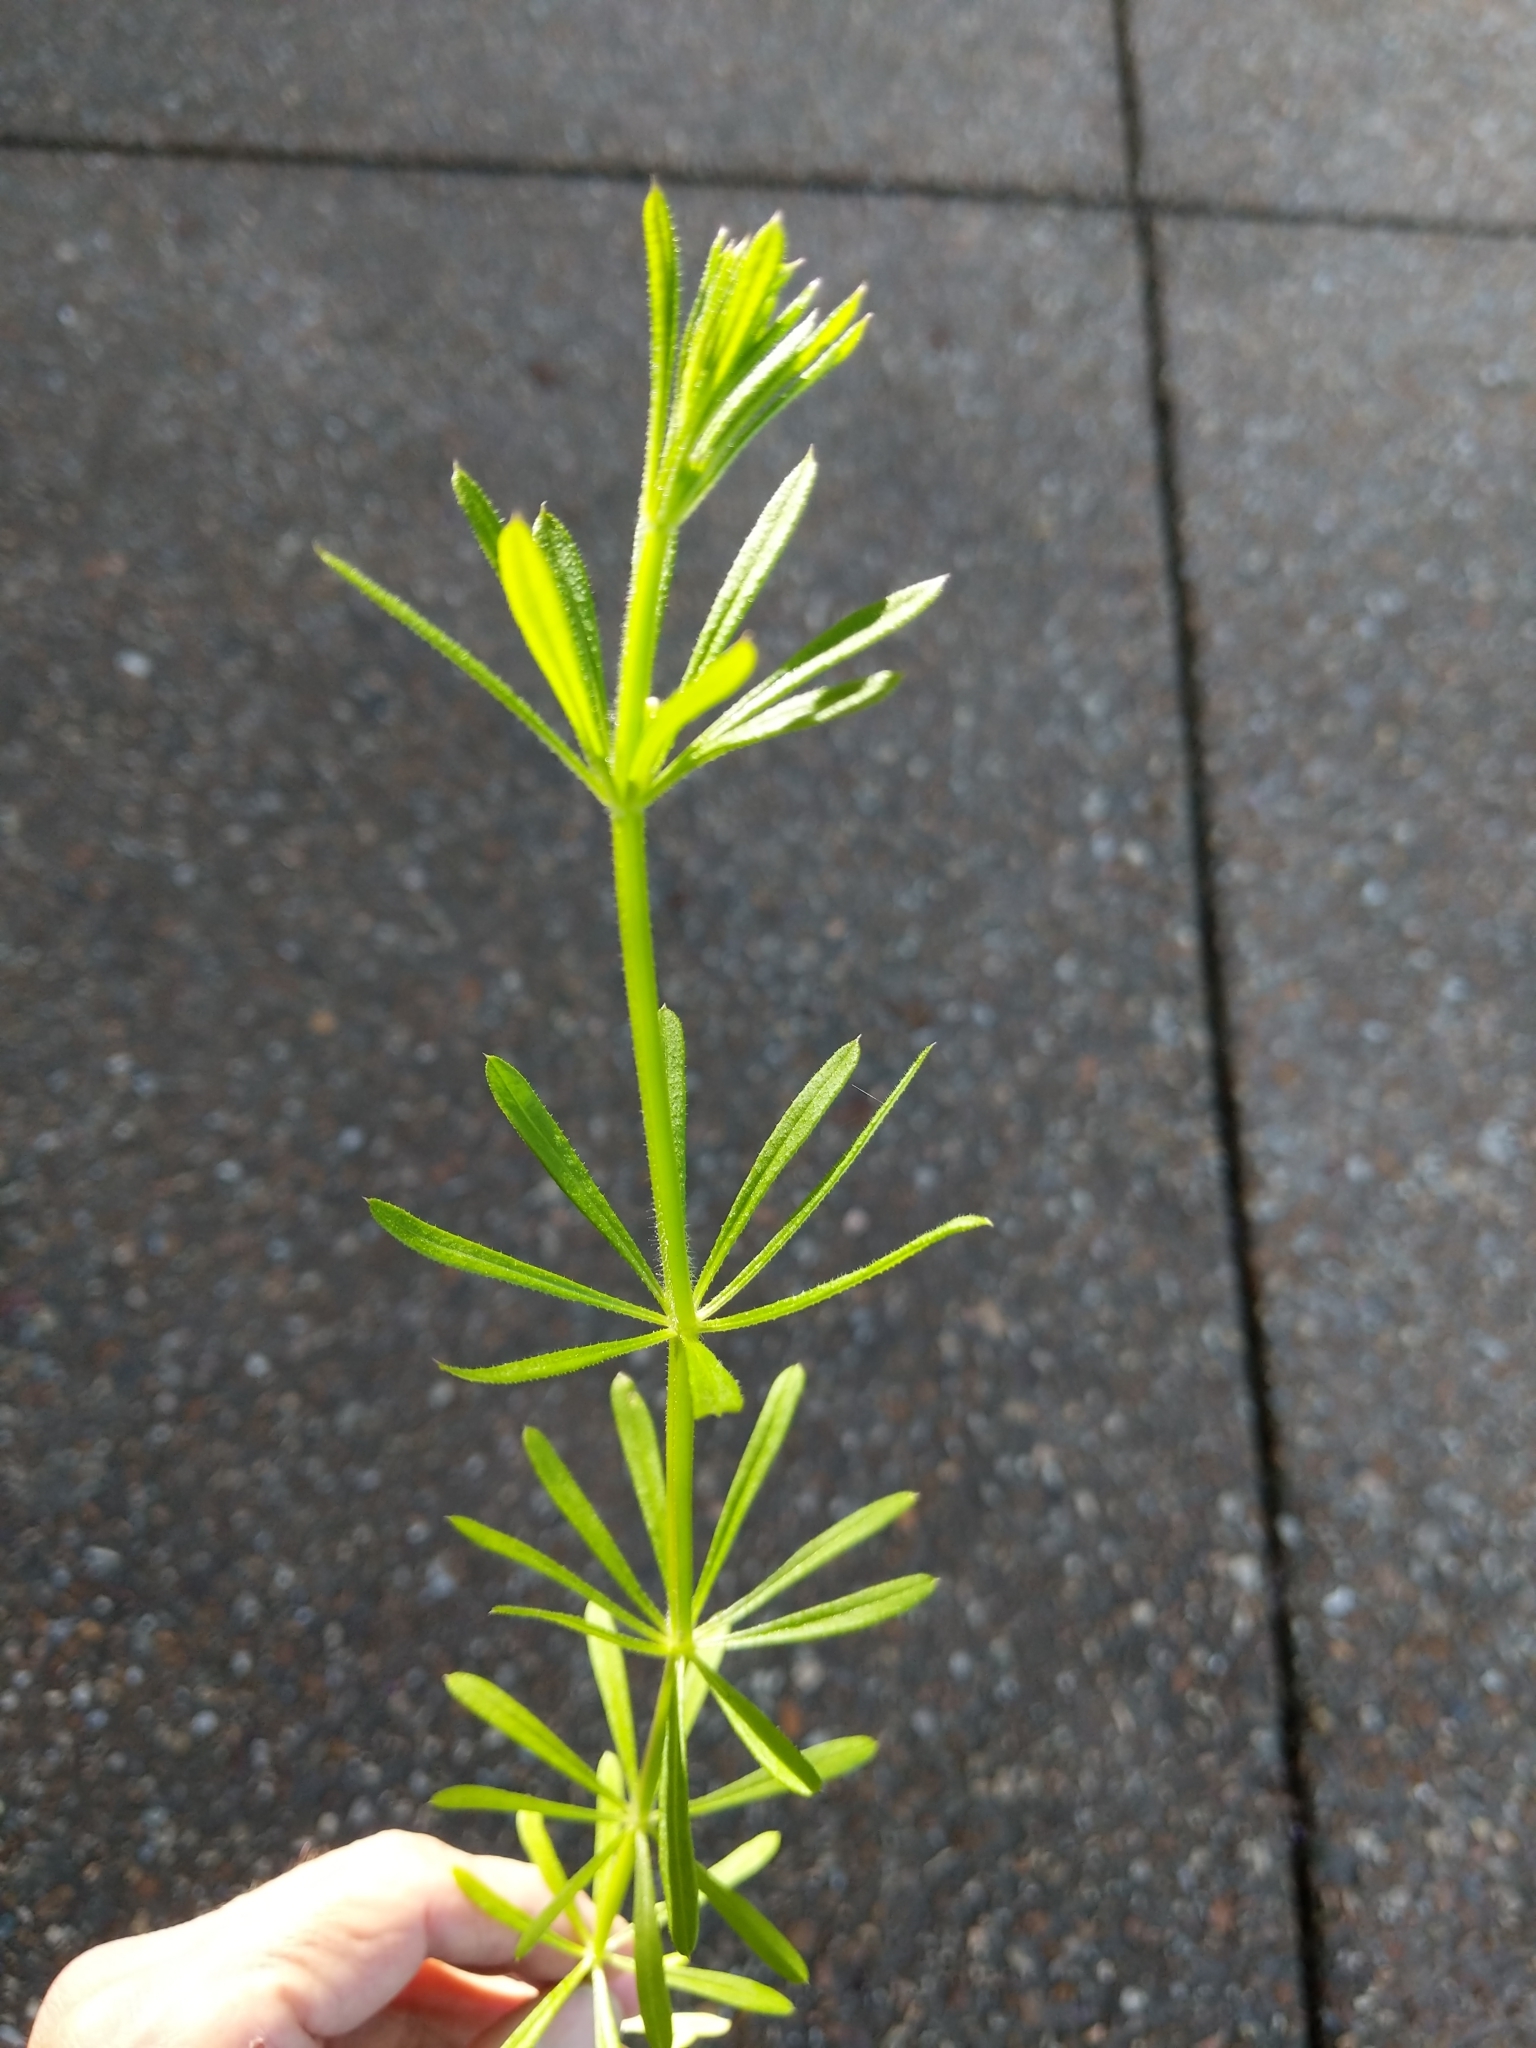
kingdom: Plantae
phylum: Tracheophyta
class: Magnoliopsida
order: Gentianales
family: Rubiaceae
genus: Galium
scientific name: Galium aparine
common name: Cleavers
